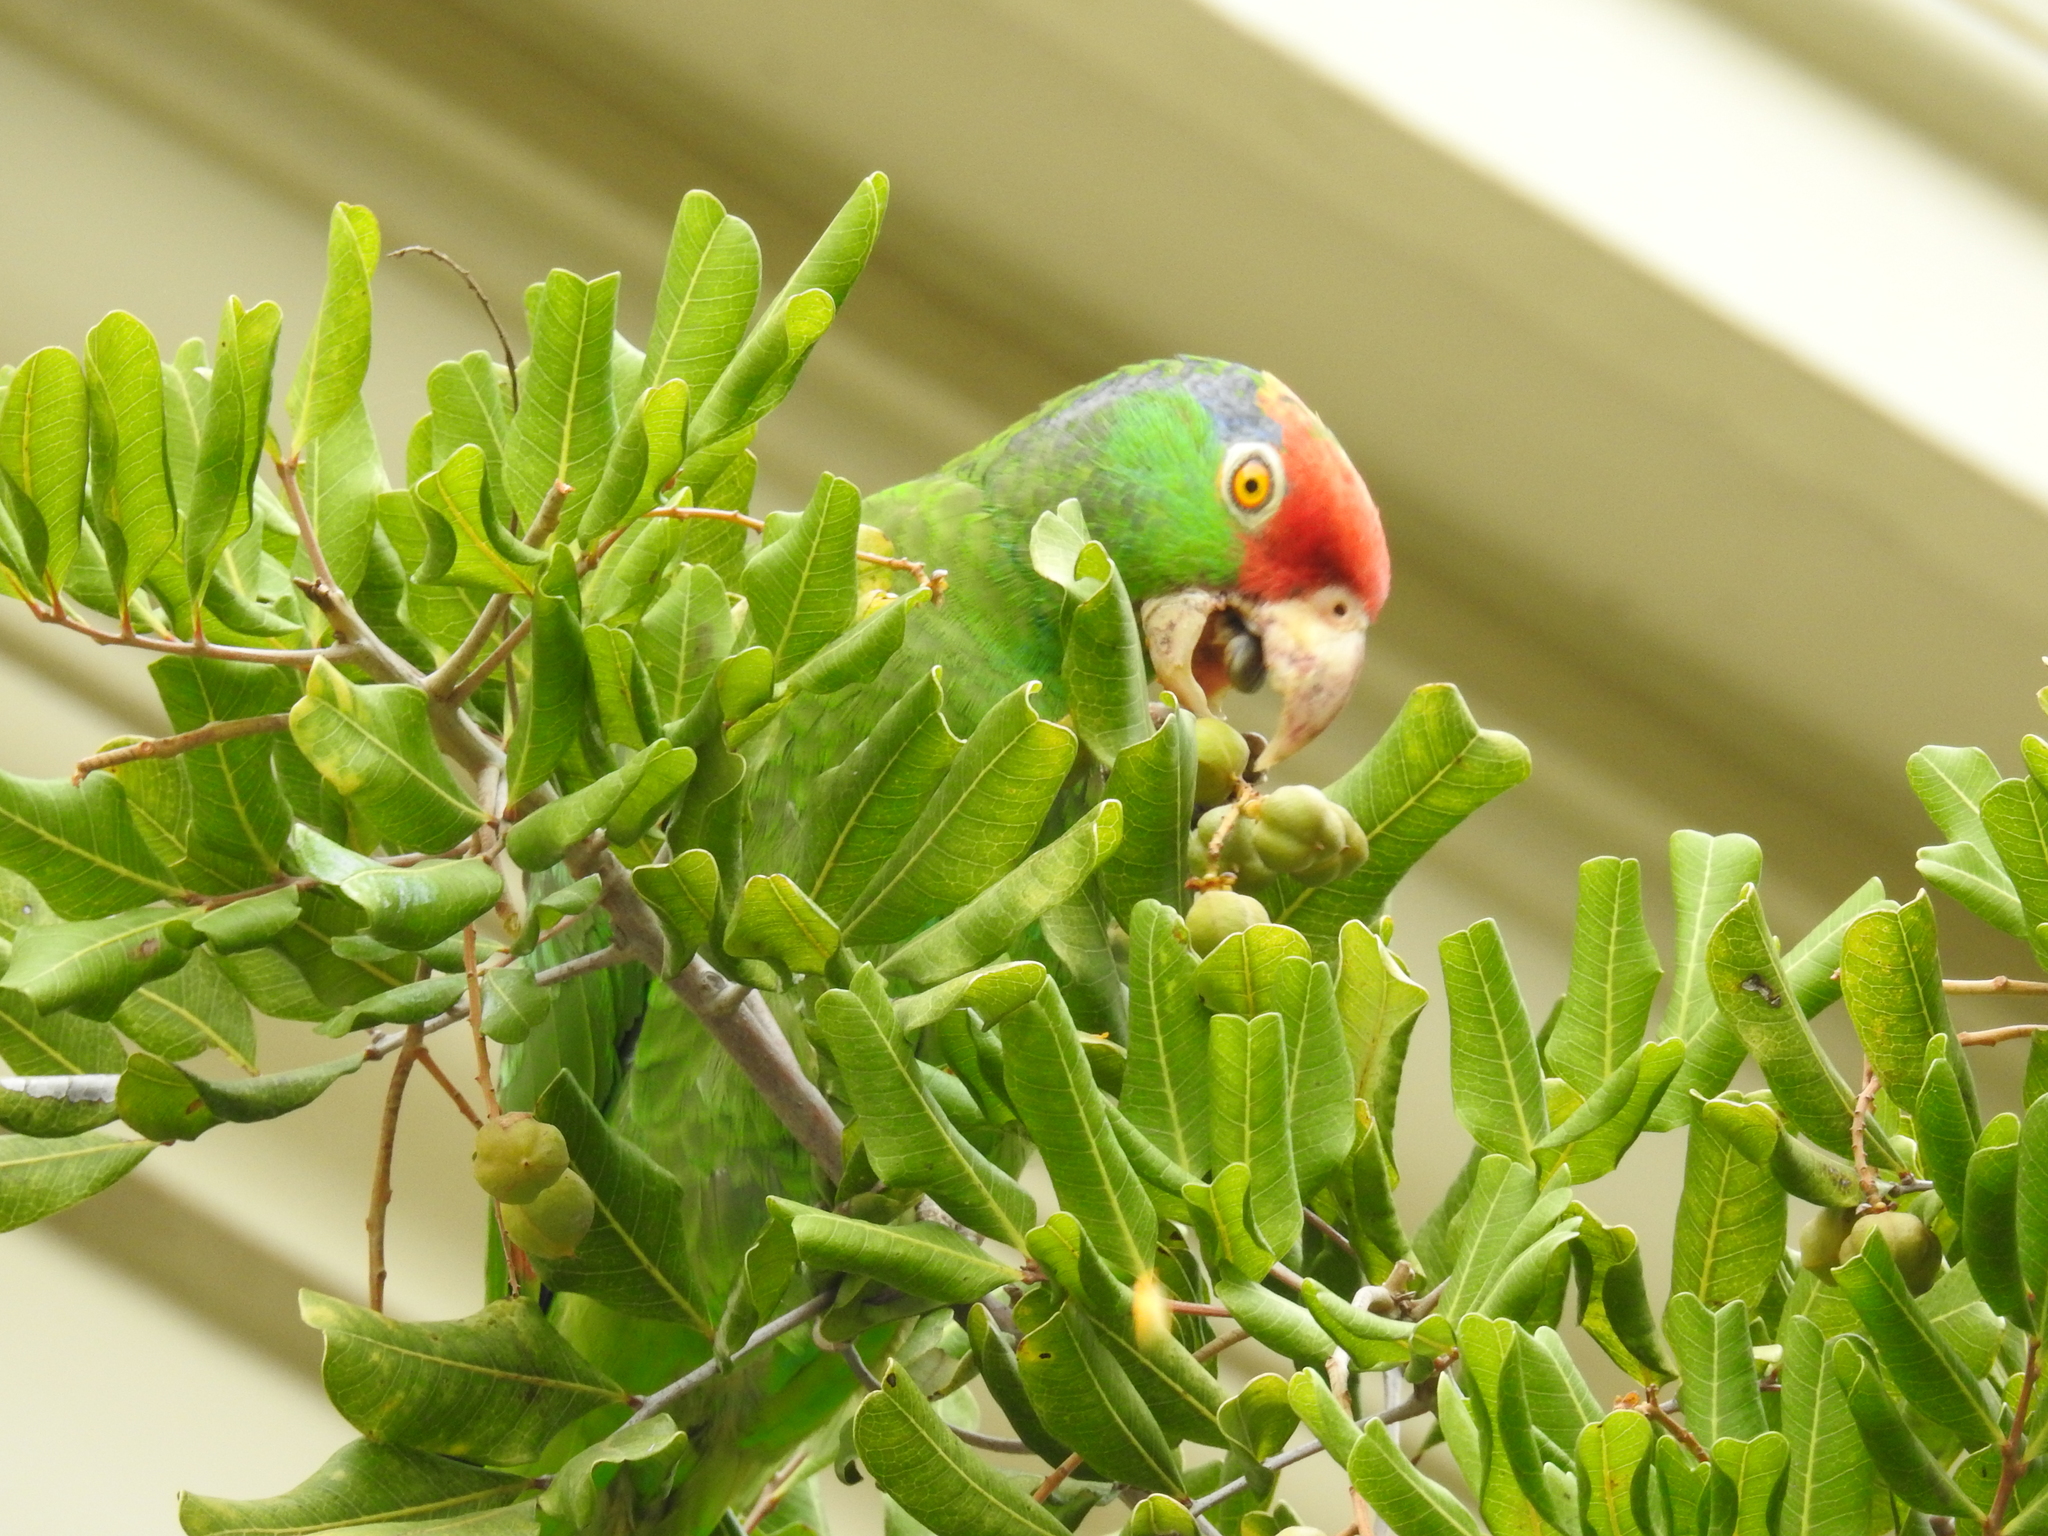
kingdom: Animalia
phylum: Chordata
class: Aves
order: Psittaciformes
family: Psittacidae
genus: Amazona
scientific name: Amazona viridigenalis
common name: Red-crowned amazon
